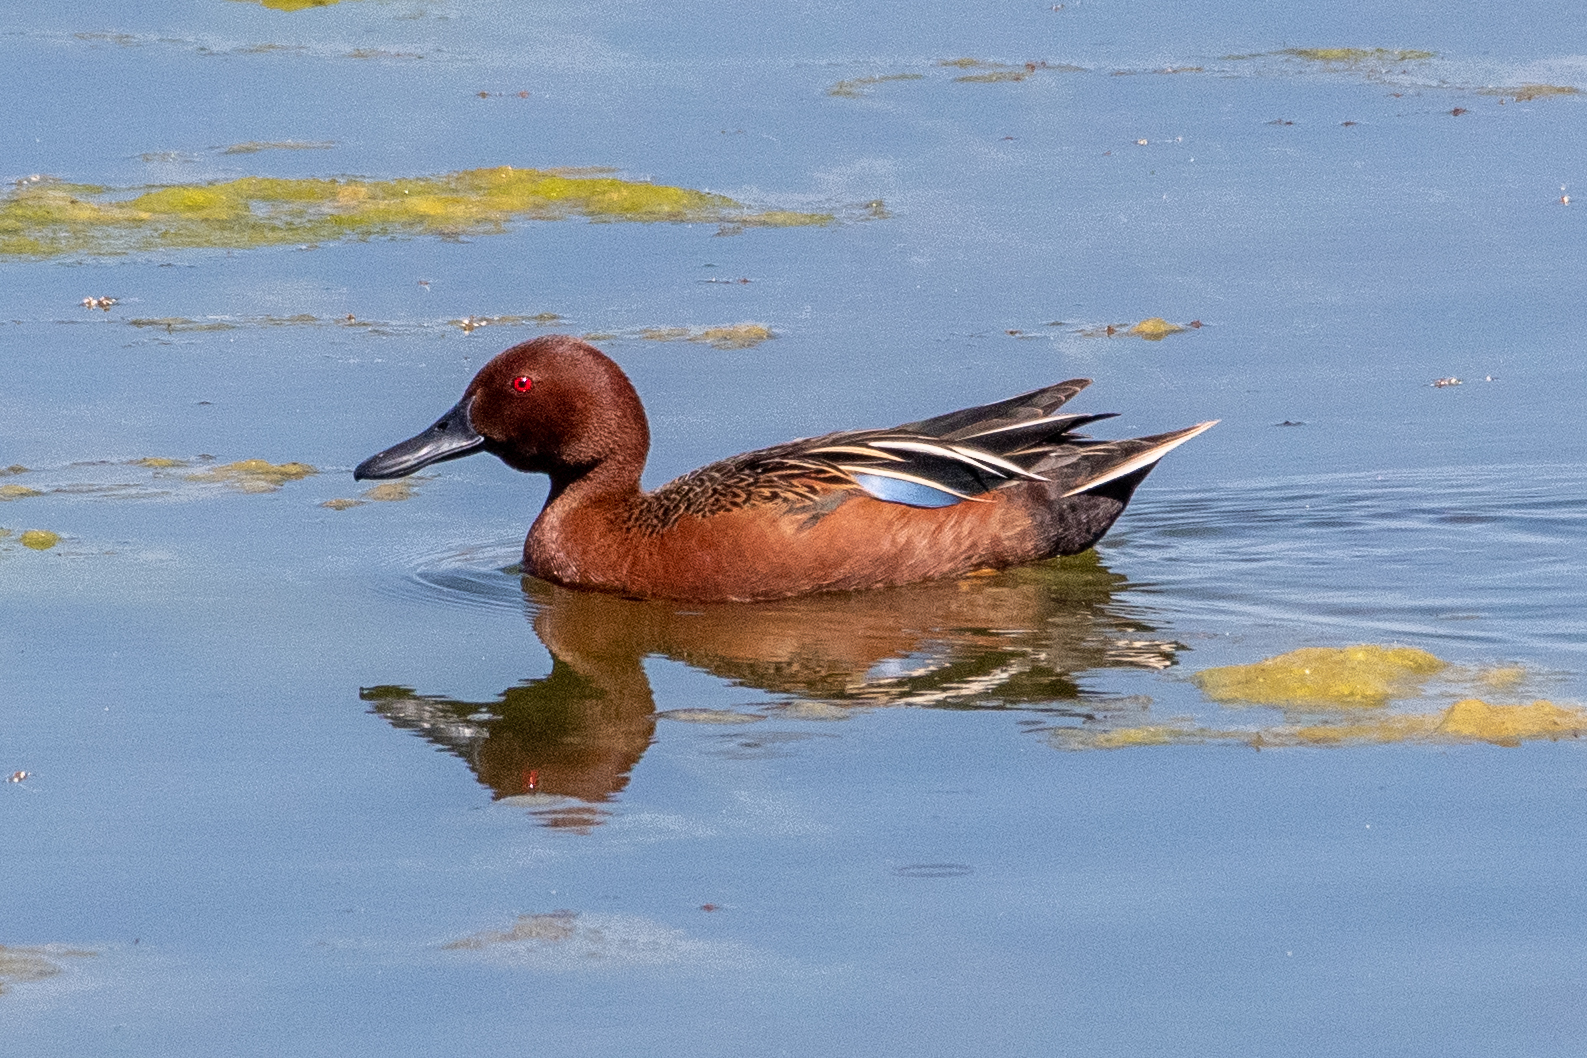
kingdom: Animalia
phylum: Chordata
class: Aves
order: Anseriformes
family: Anatidae
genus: Spatula
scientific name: Spatula cyanoptera
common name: Cinnamon teal
